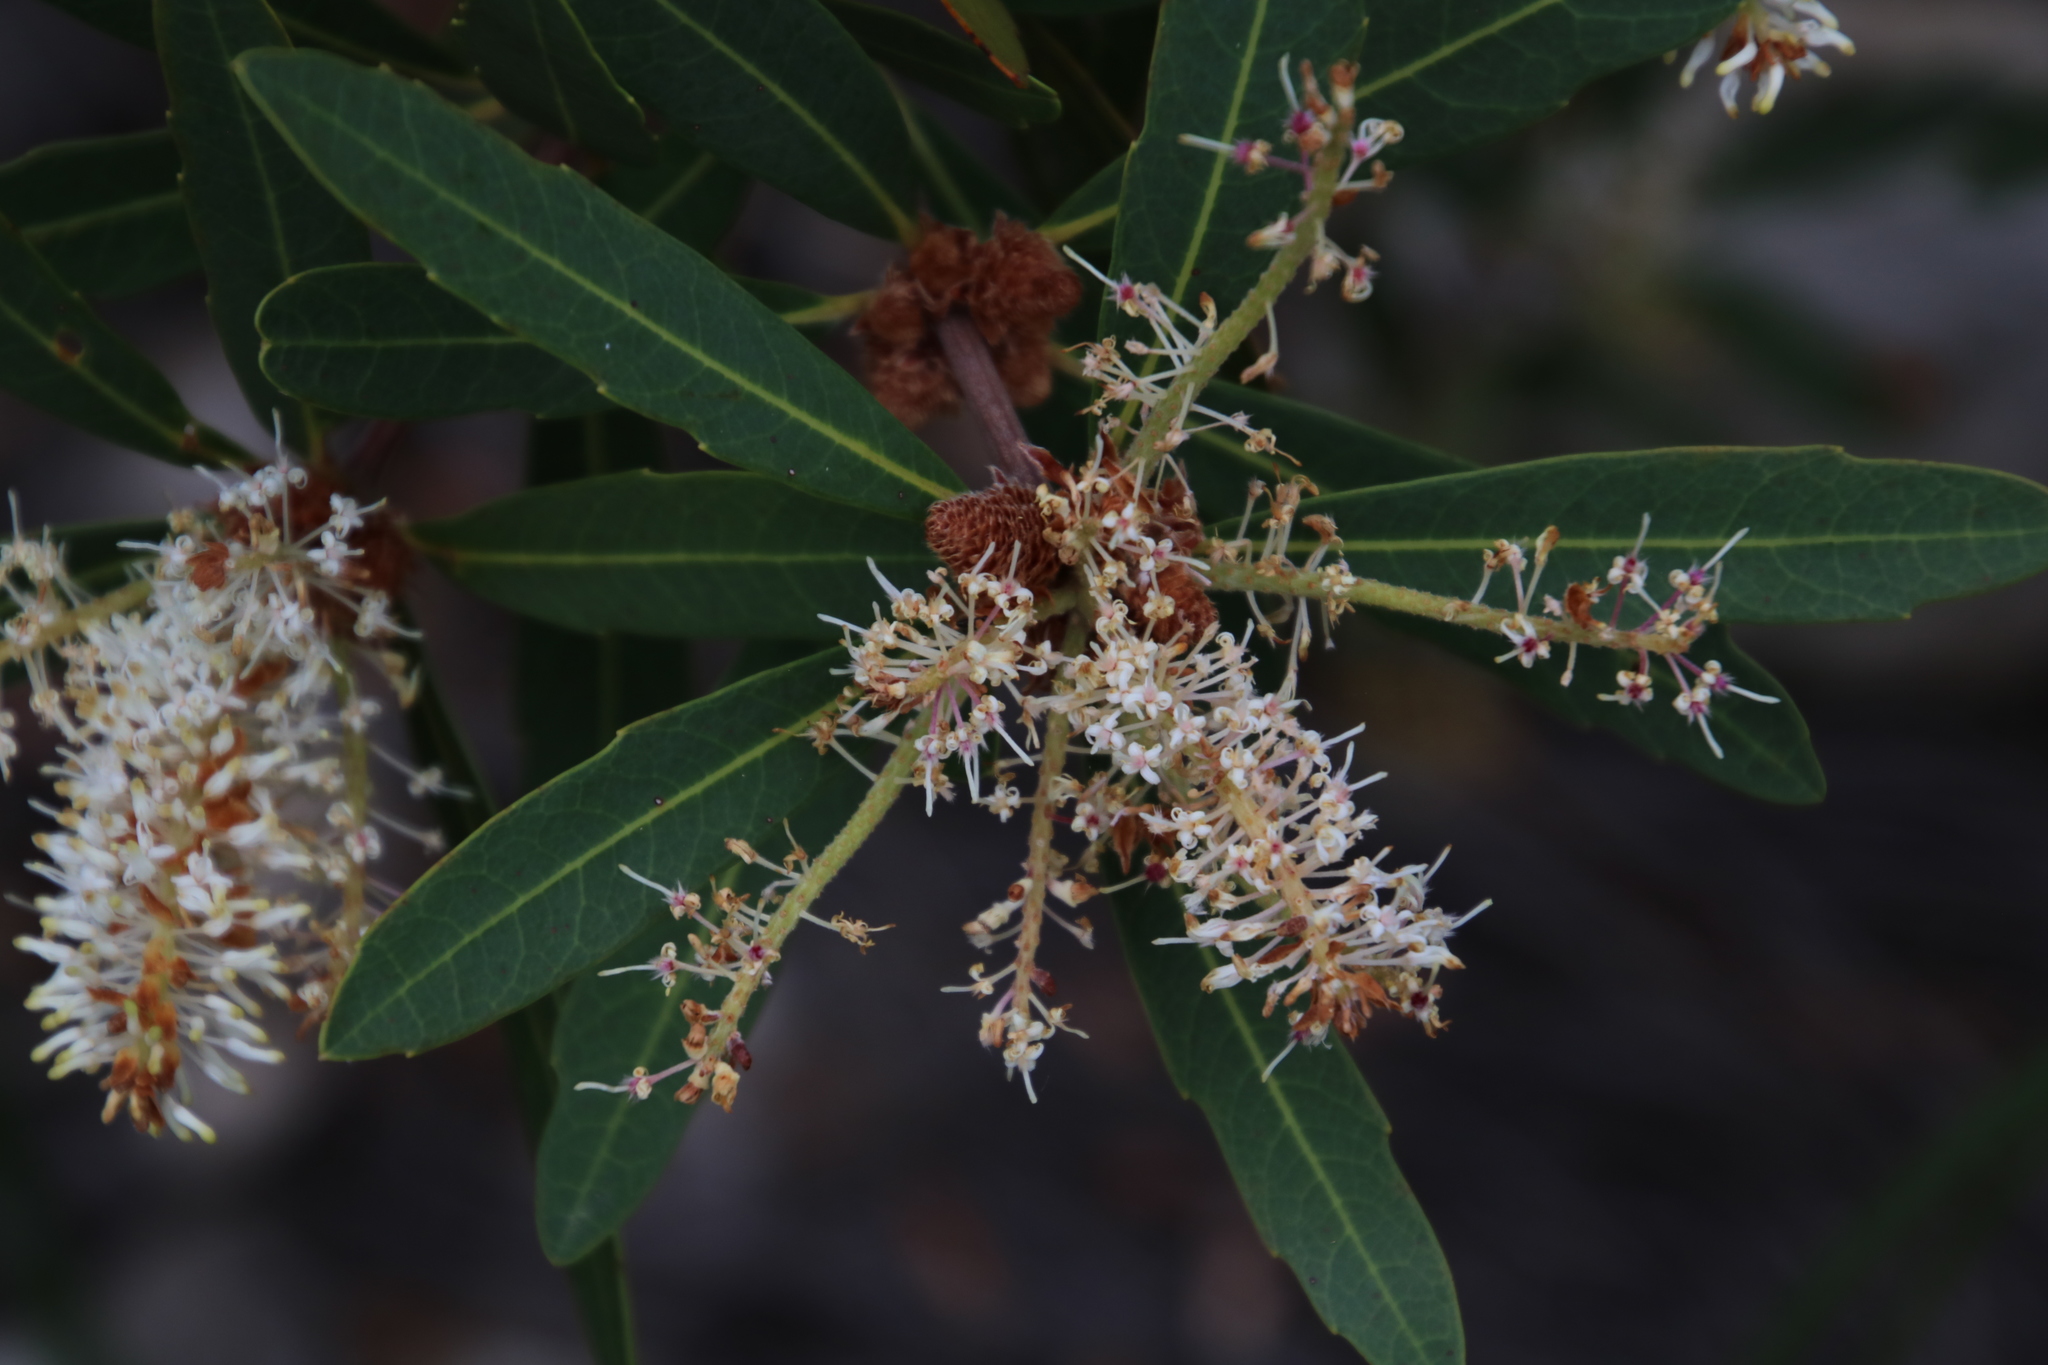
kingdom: Plantae
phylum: Tracheophyta
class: Magnoliopsida
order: Proteales
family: Proteaceae
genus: Brabejum
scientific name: Brabejum stellatifolium
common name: Wild almond
